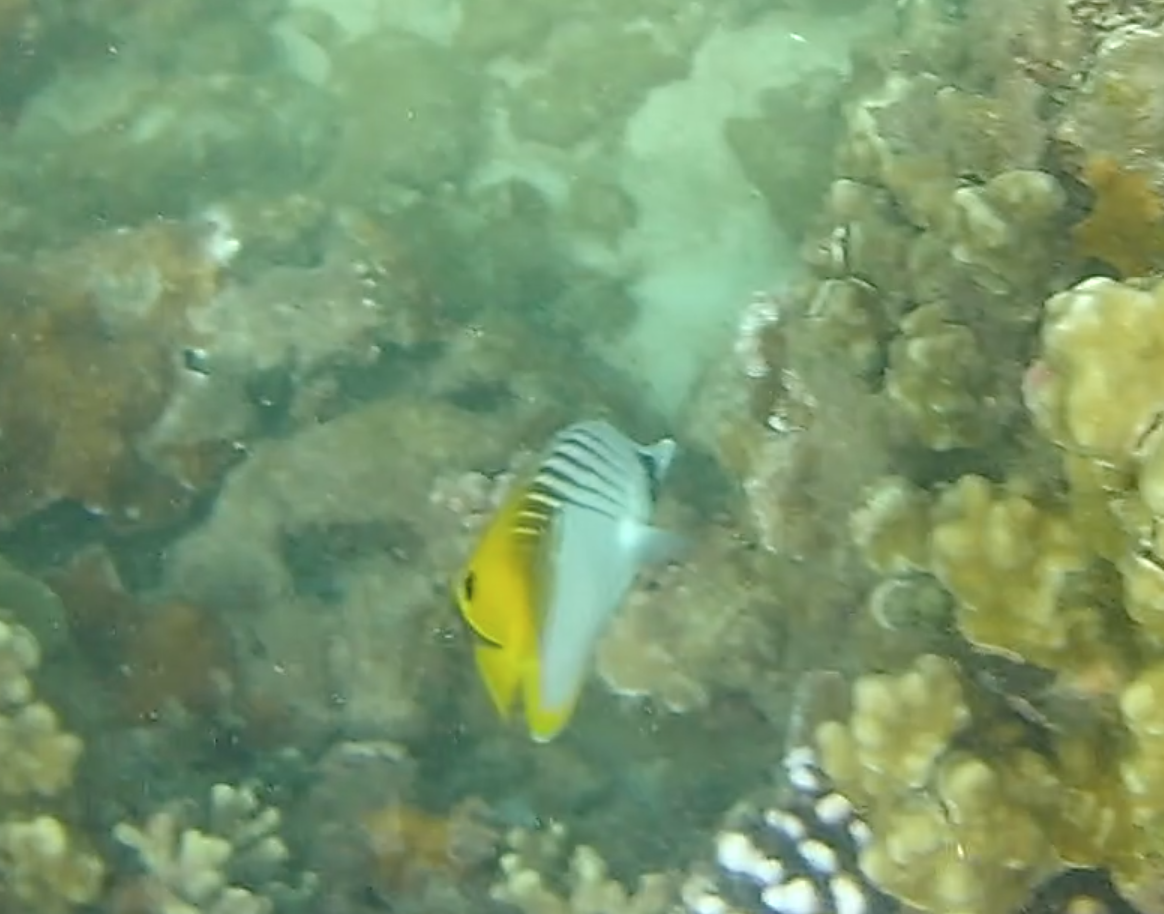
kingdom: Animalia
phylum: Chordata
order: Perciformes
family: Chaetodontidae
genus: Chaetodon
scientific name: Chaetodon auriga
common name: Threadfin butterflyfish
